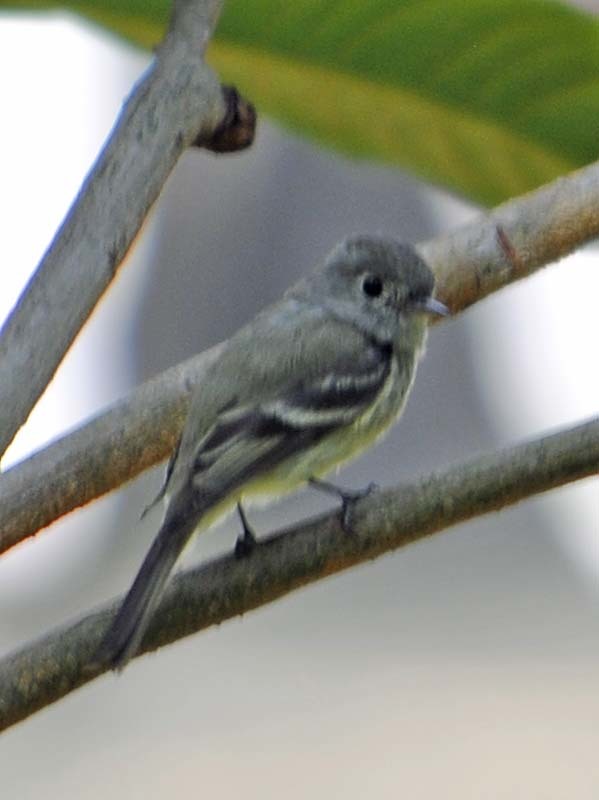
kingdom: Animalia
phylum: Chordata
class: Aves
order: Passeriformes
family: Tyrannidae
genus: Empidonax
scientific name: Empidonax hammondii
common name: Hammond's flycatcher
